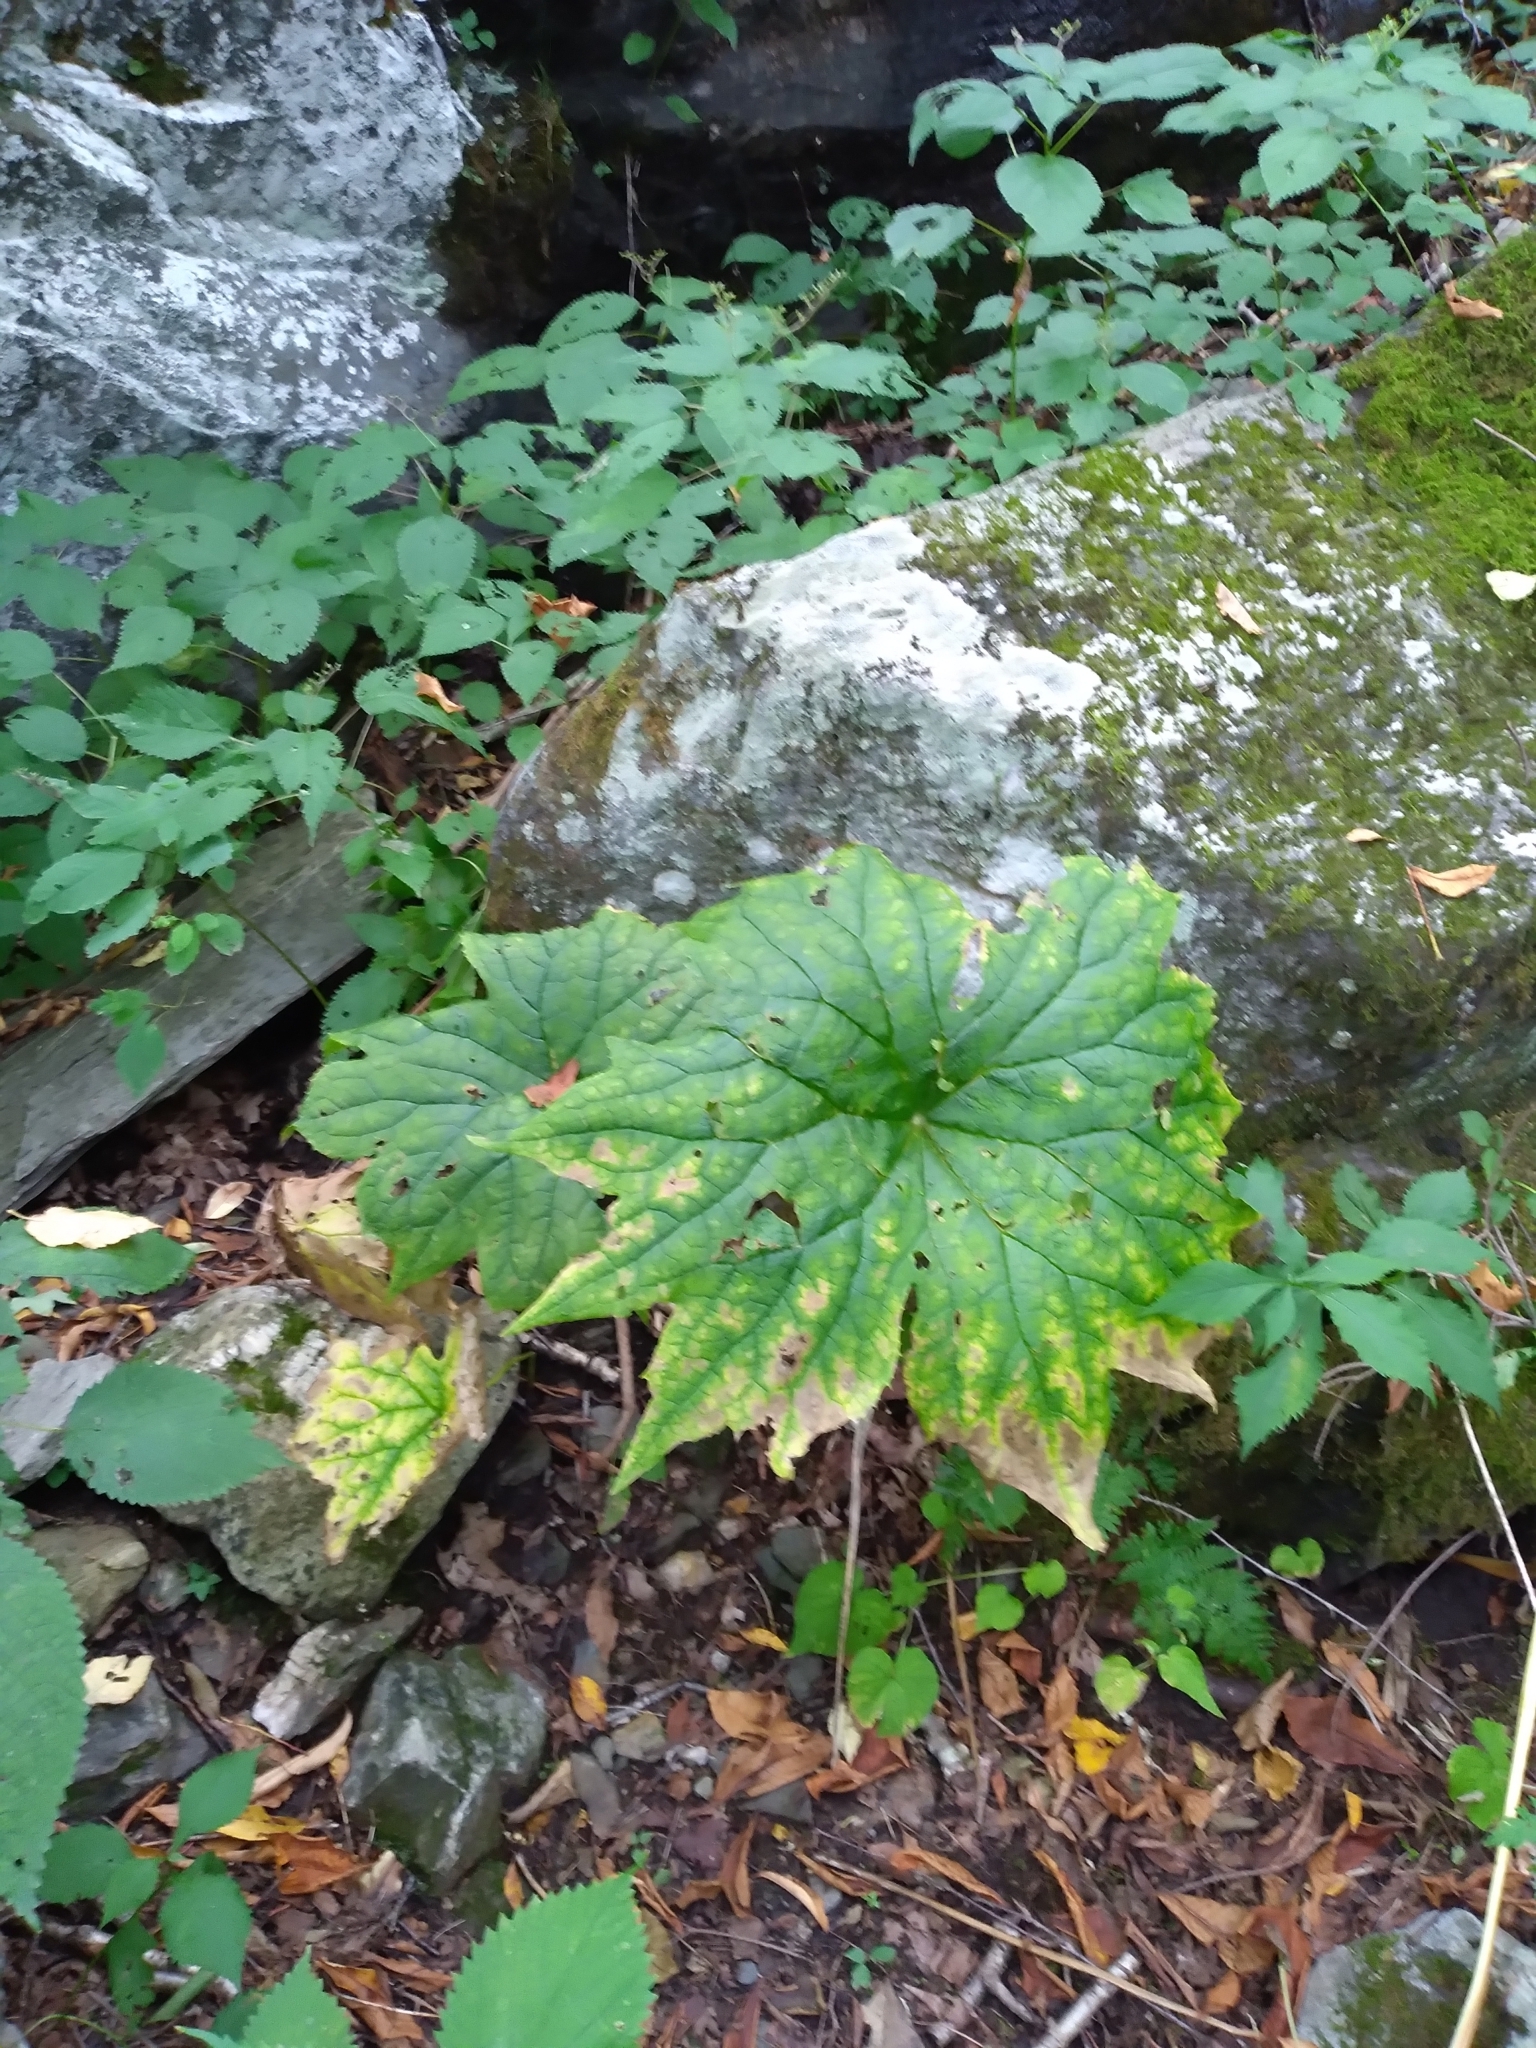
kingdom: Plantae
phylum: Tracheophyta
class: Magnoliopsida
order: Ranunculales
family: Berberidaceae
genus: Diphylleia
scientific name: Diphylleia cymosa
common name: Umbrella-leaf
